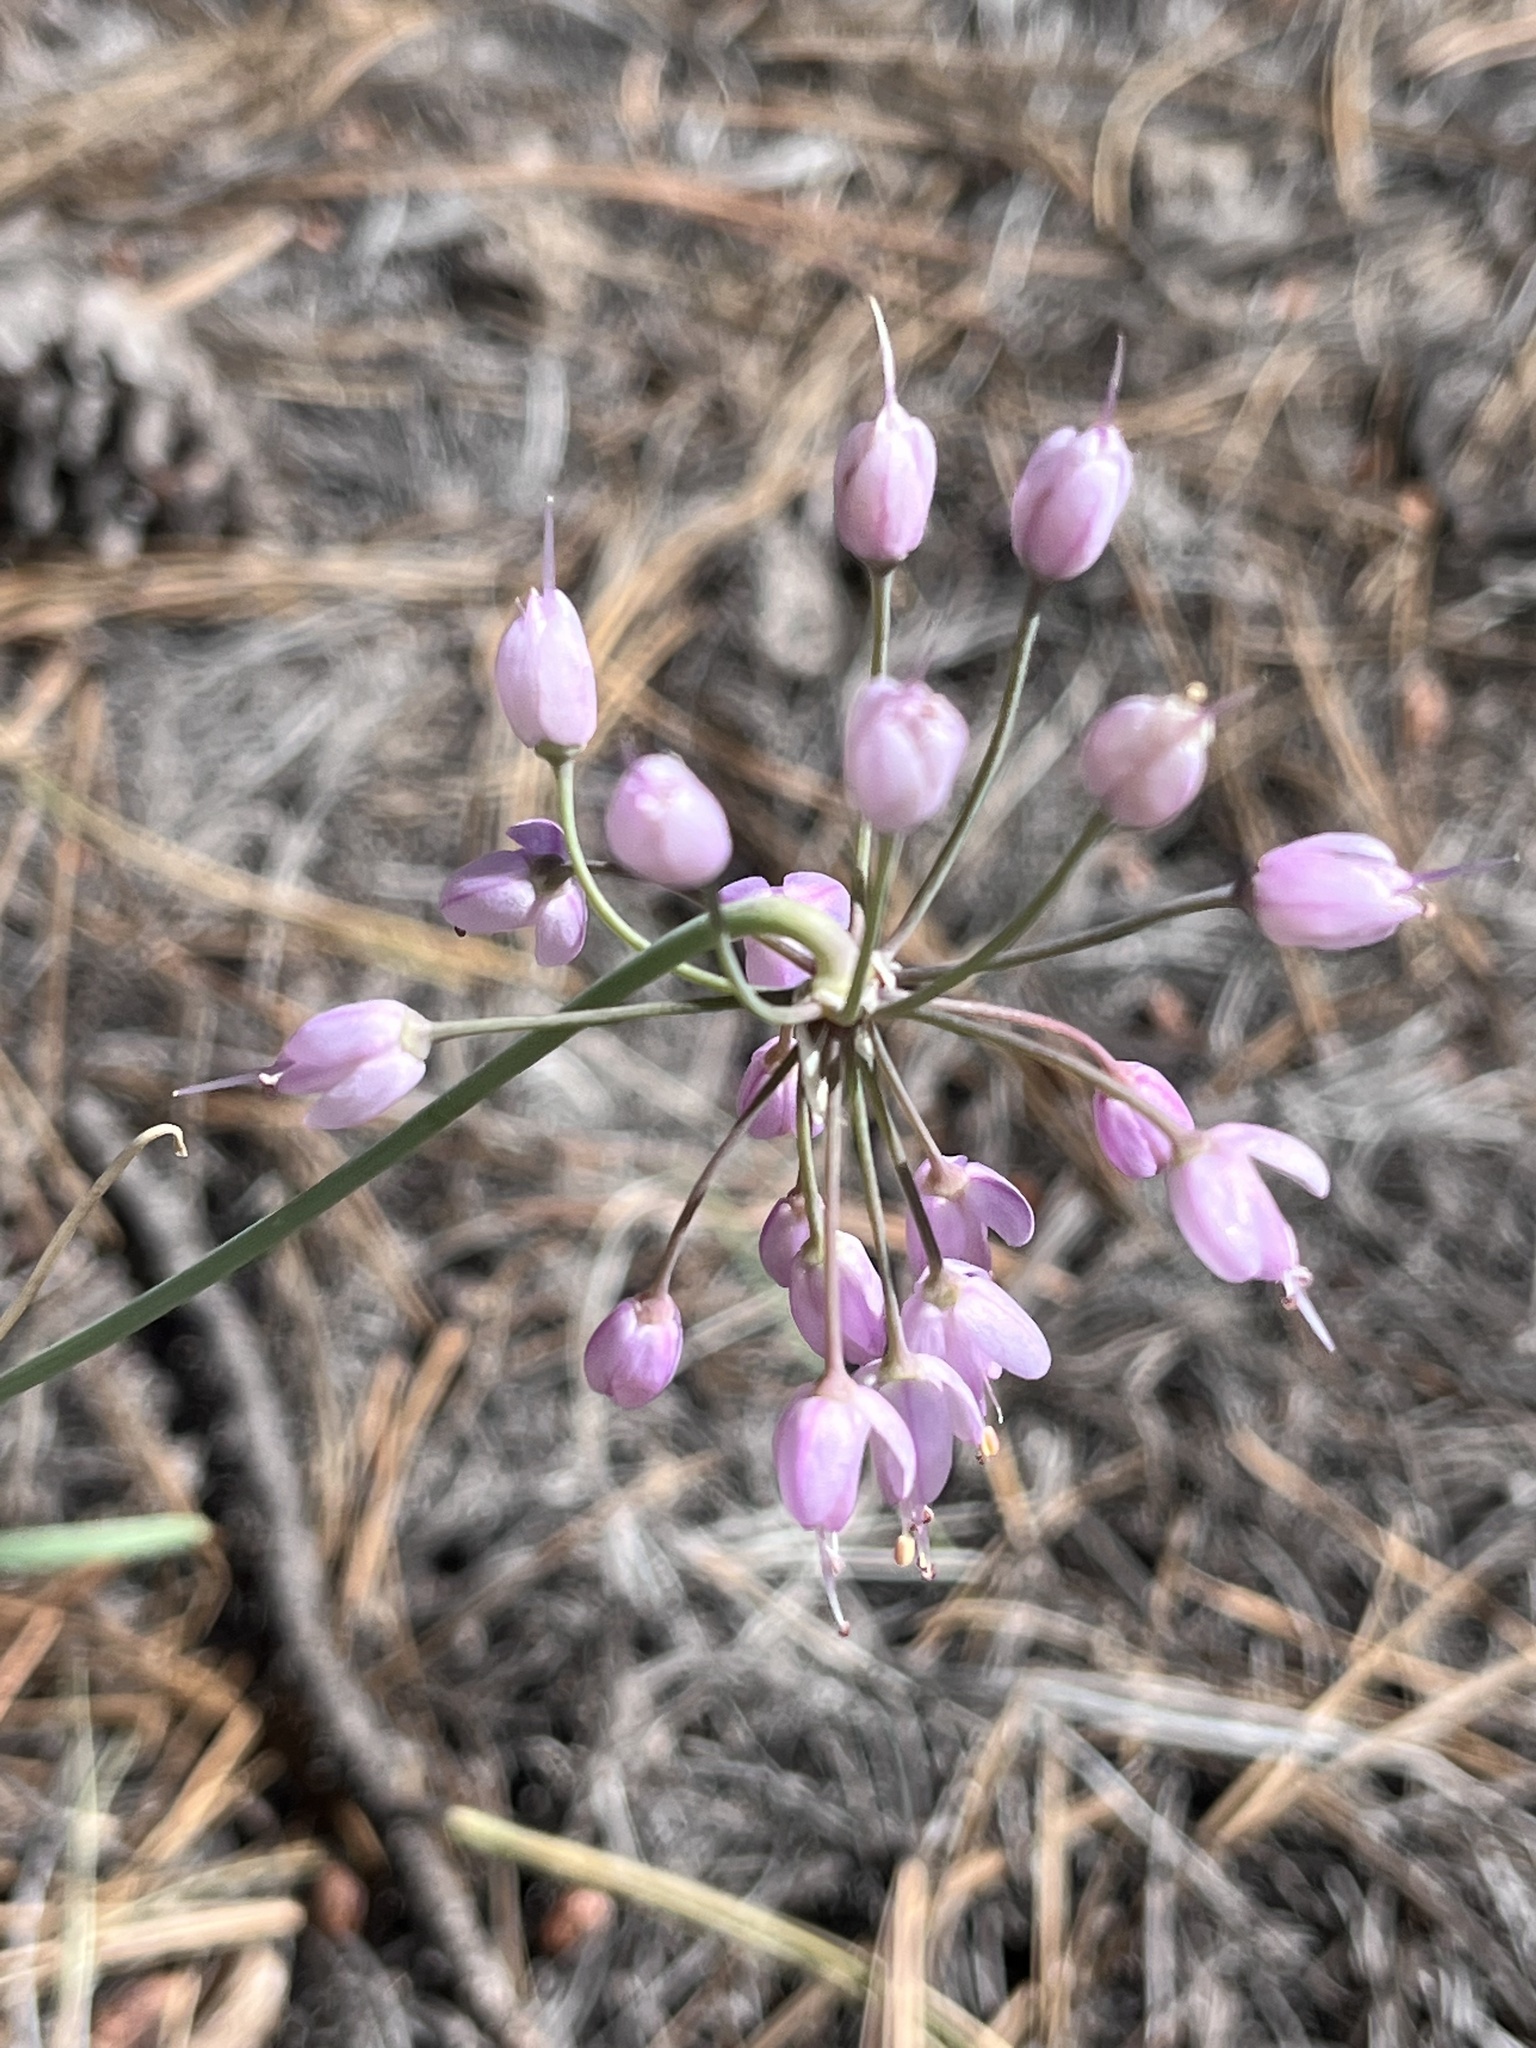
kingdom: Plantae
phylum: Tracheophyta
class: Liliopsida
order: Asparagales
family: Amaryllidaceae
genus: Allium
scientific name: Allium cernuum
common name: Nodding onion
